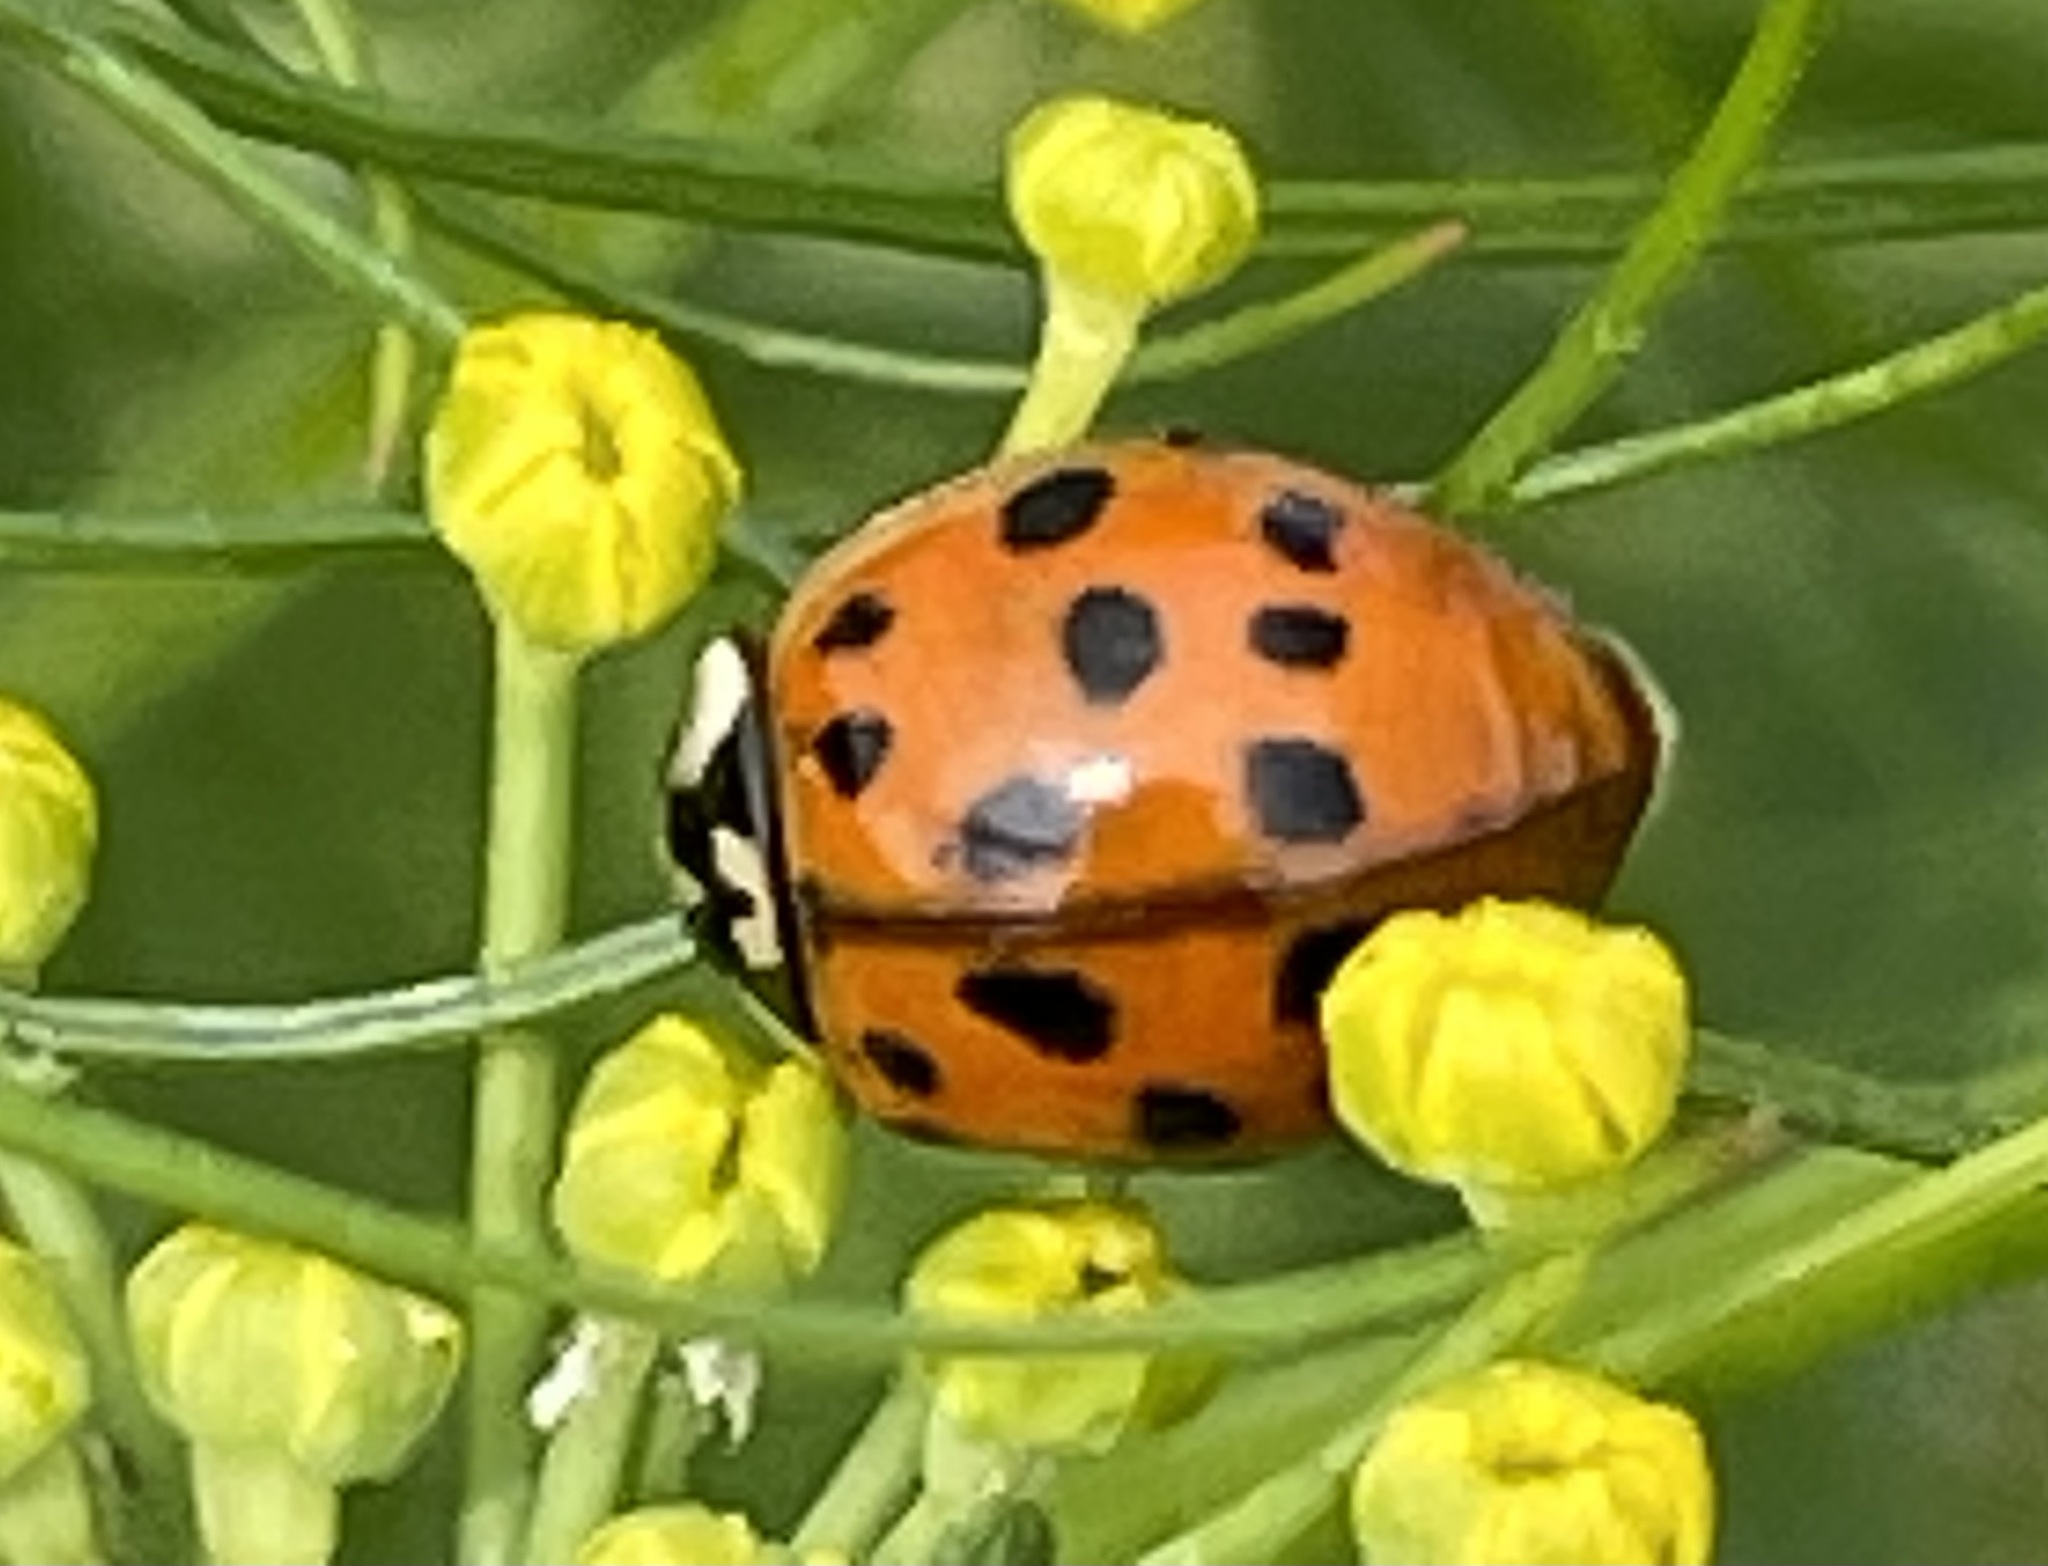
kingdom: Animalia
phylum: Arthropoda
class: Insecta
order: Coleoptera
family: Coccinellidae
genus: Harmonia
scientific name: Harmonia axyridis
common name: Harlequin ladybird
